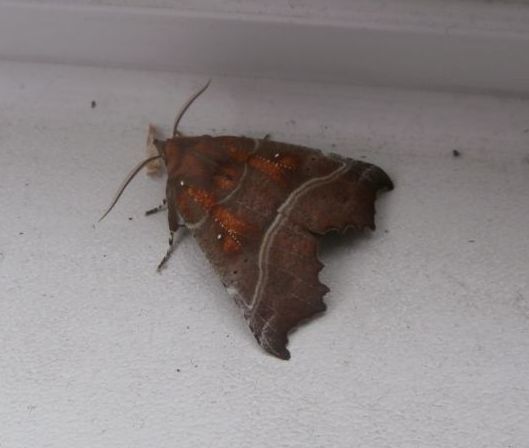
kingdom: Animalia
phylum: Arthropoda
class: Insecta
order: Lepidoptera
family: Erebidae
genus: Scoliopteryx
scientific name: Scoliopteryx libatrix
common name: Herald
